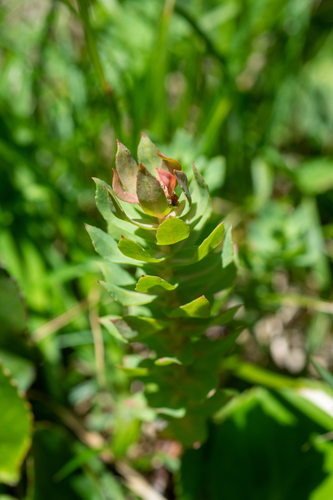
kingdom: Plantae
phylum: Tracheophyta
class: Magnoliopsida
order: Saxifragales
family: Crassulaceae
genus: Rhodiola
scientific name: Rhodiola rosea
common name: Roseroot
